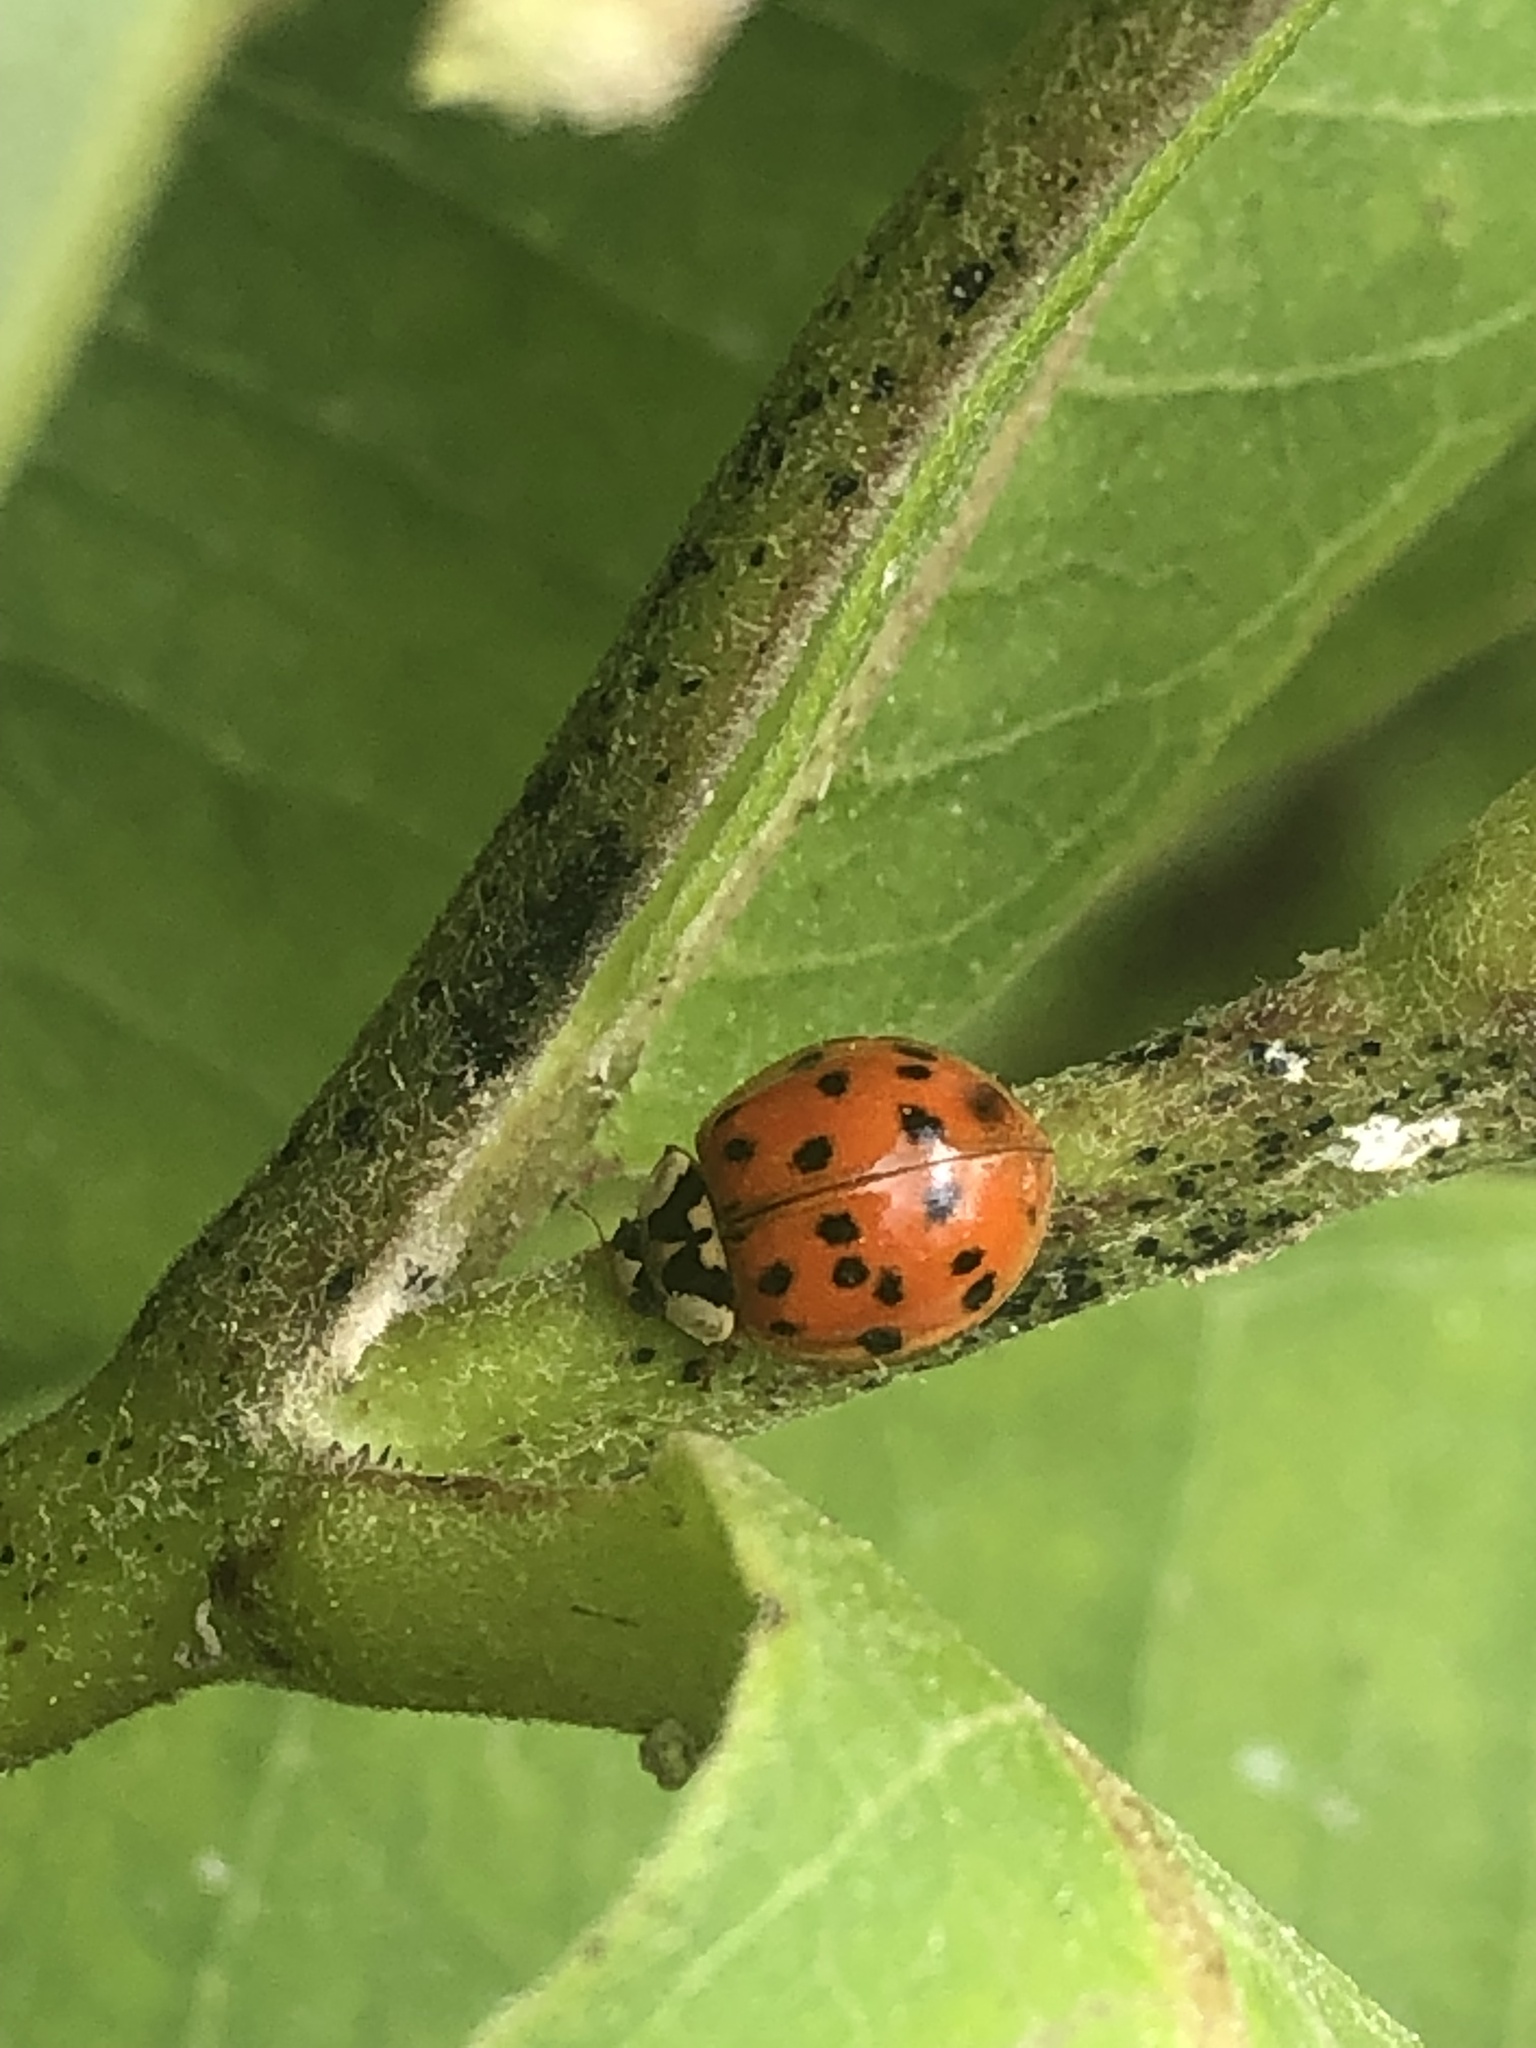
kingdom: Animalia
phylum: Arthropoda
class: Insecta
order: Coleoptera
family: Coccinellidae
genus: Harmonia
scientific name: Harmonia axyridis
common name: Harlequin ladybird
